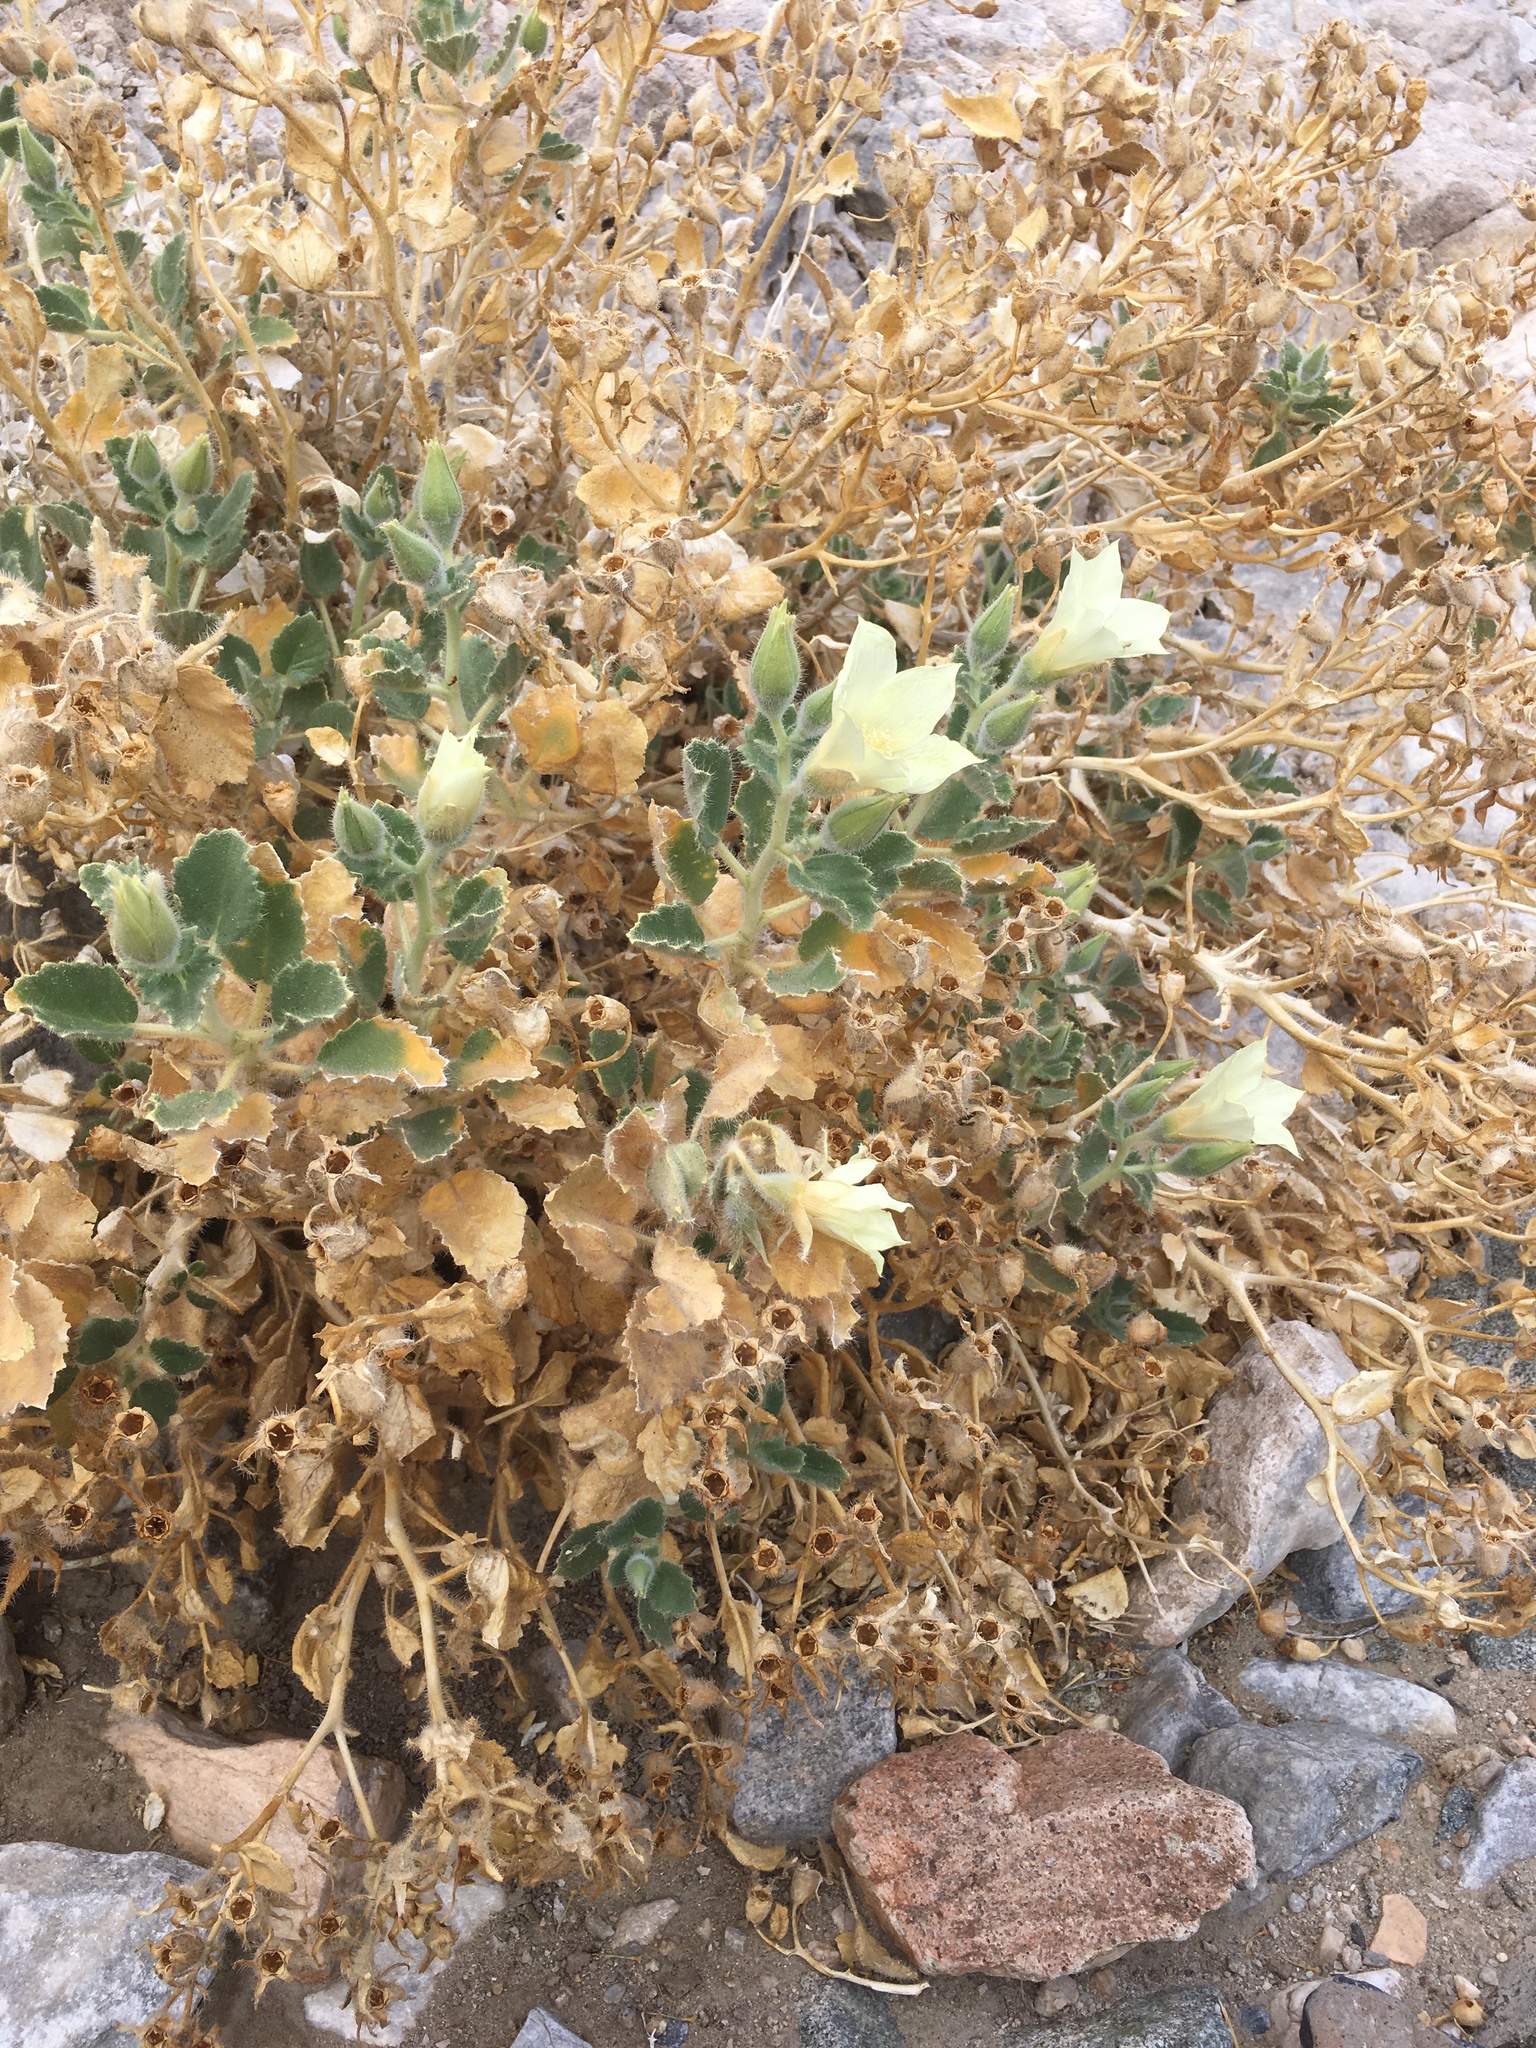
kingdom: Plantae
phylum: Tracheophyta
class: Magnoliopsida
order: Cornales
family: Loasaceae
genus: Eucnide
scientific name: Eucnide urens
